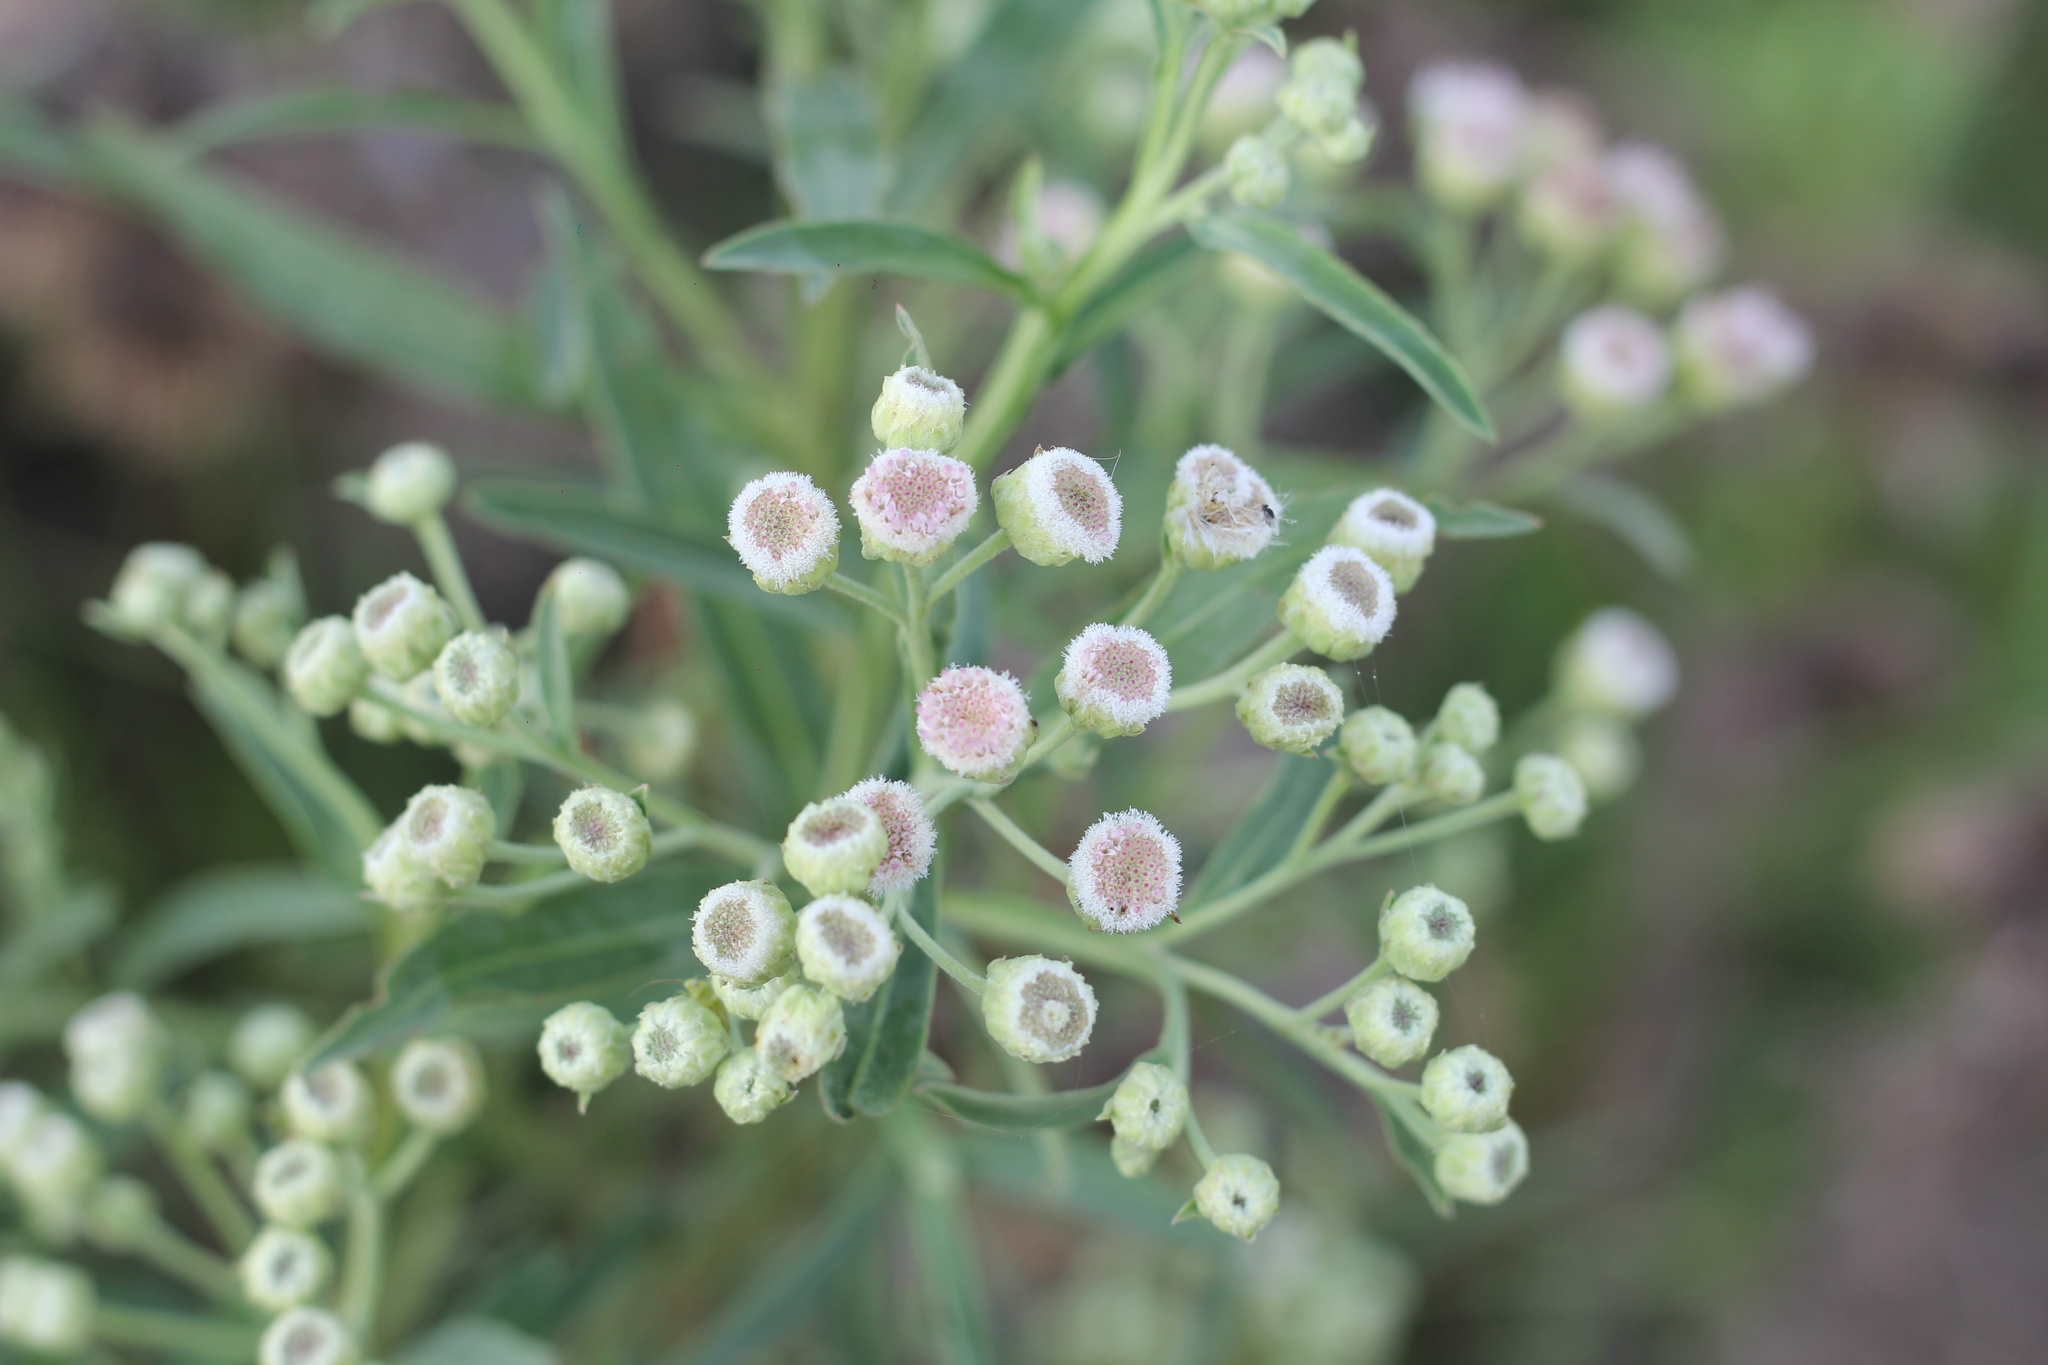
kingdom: Plantae
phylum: Tracheophyta
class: Magnoliopsida
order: Asterales
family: Asteraceae
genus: Pluchea
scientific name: Pluchea sagittalis
